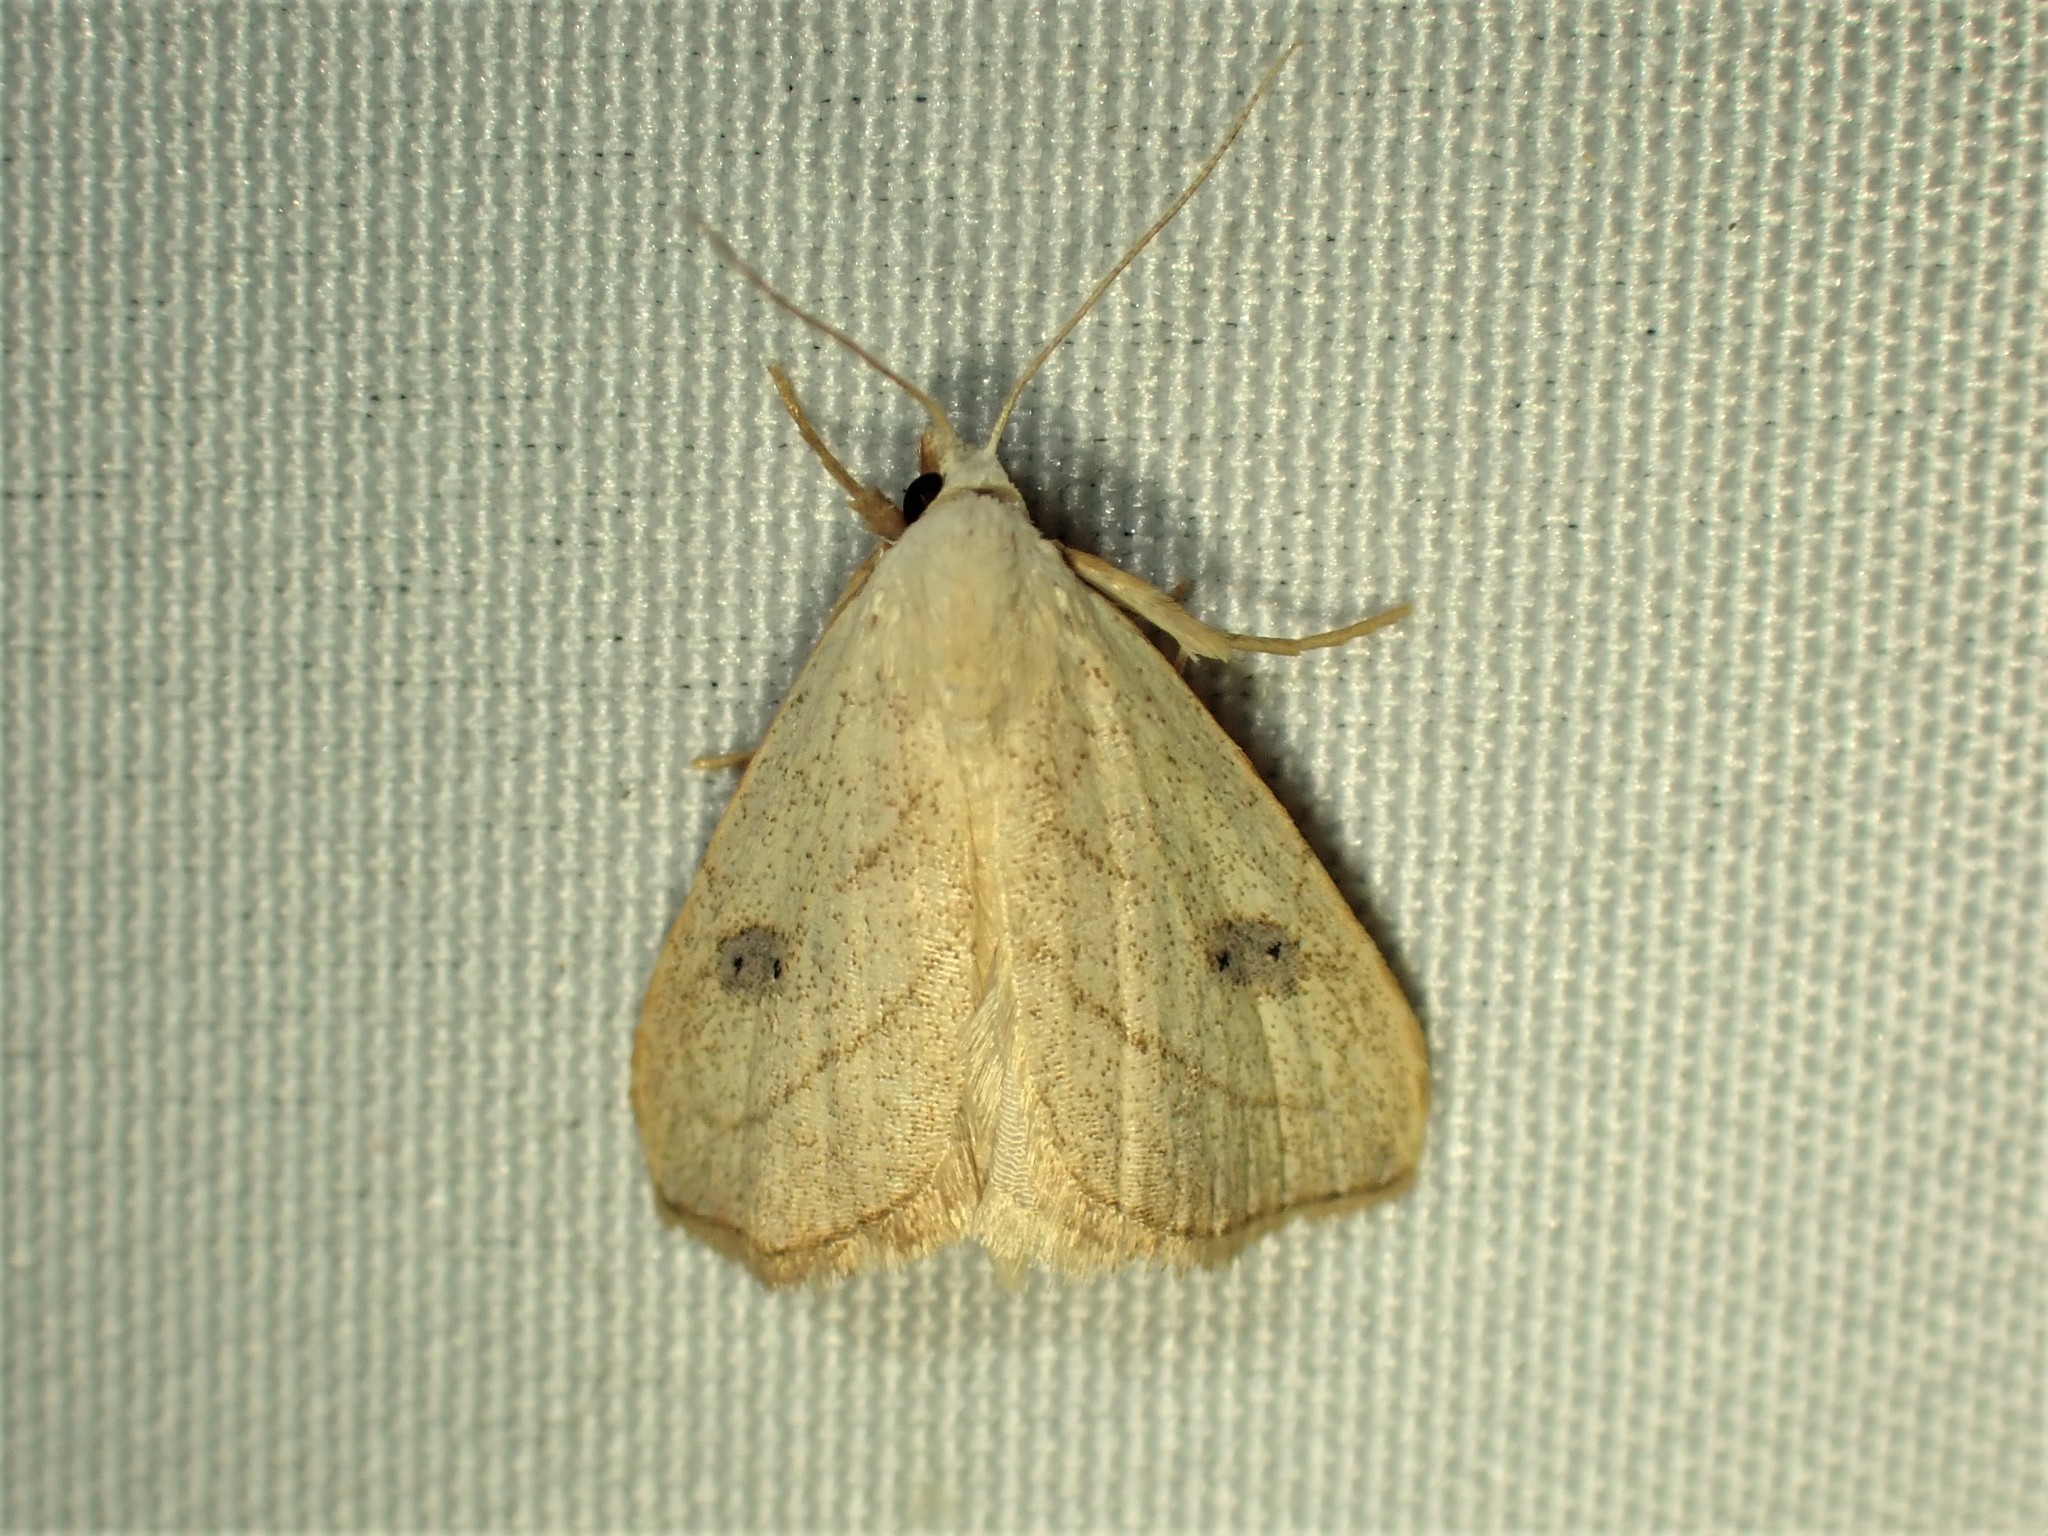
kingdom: Animalia
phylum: Arthropoda
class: Insecta
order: Lepidoptera
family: Erebidae
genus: Rivula
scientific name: Rivula propinqualis
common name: Spotted grass moth
